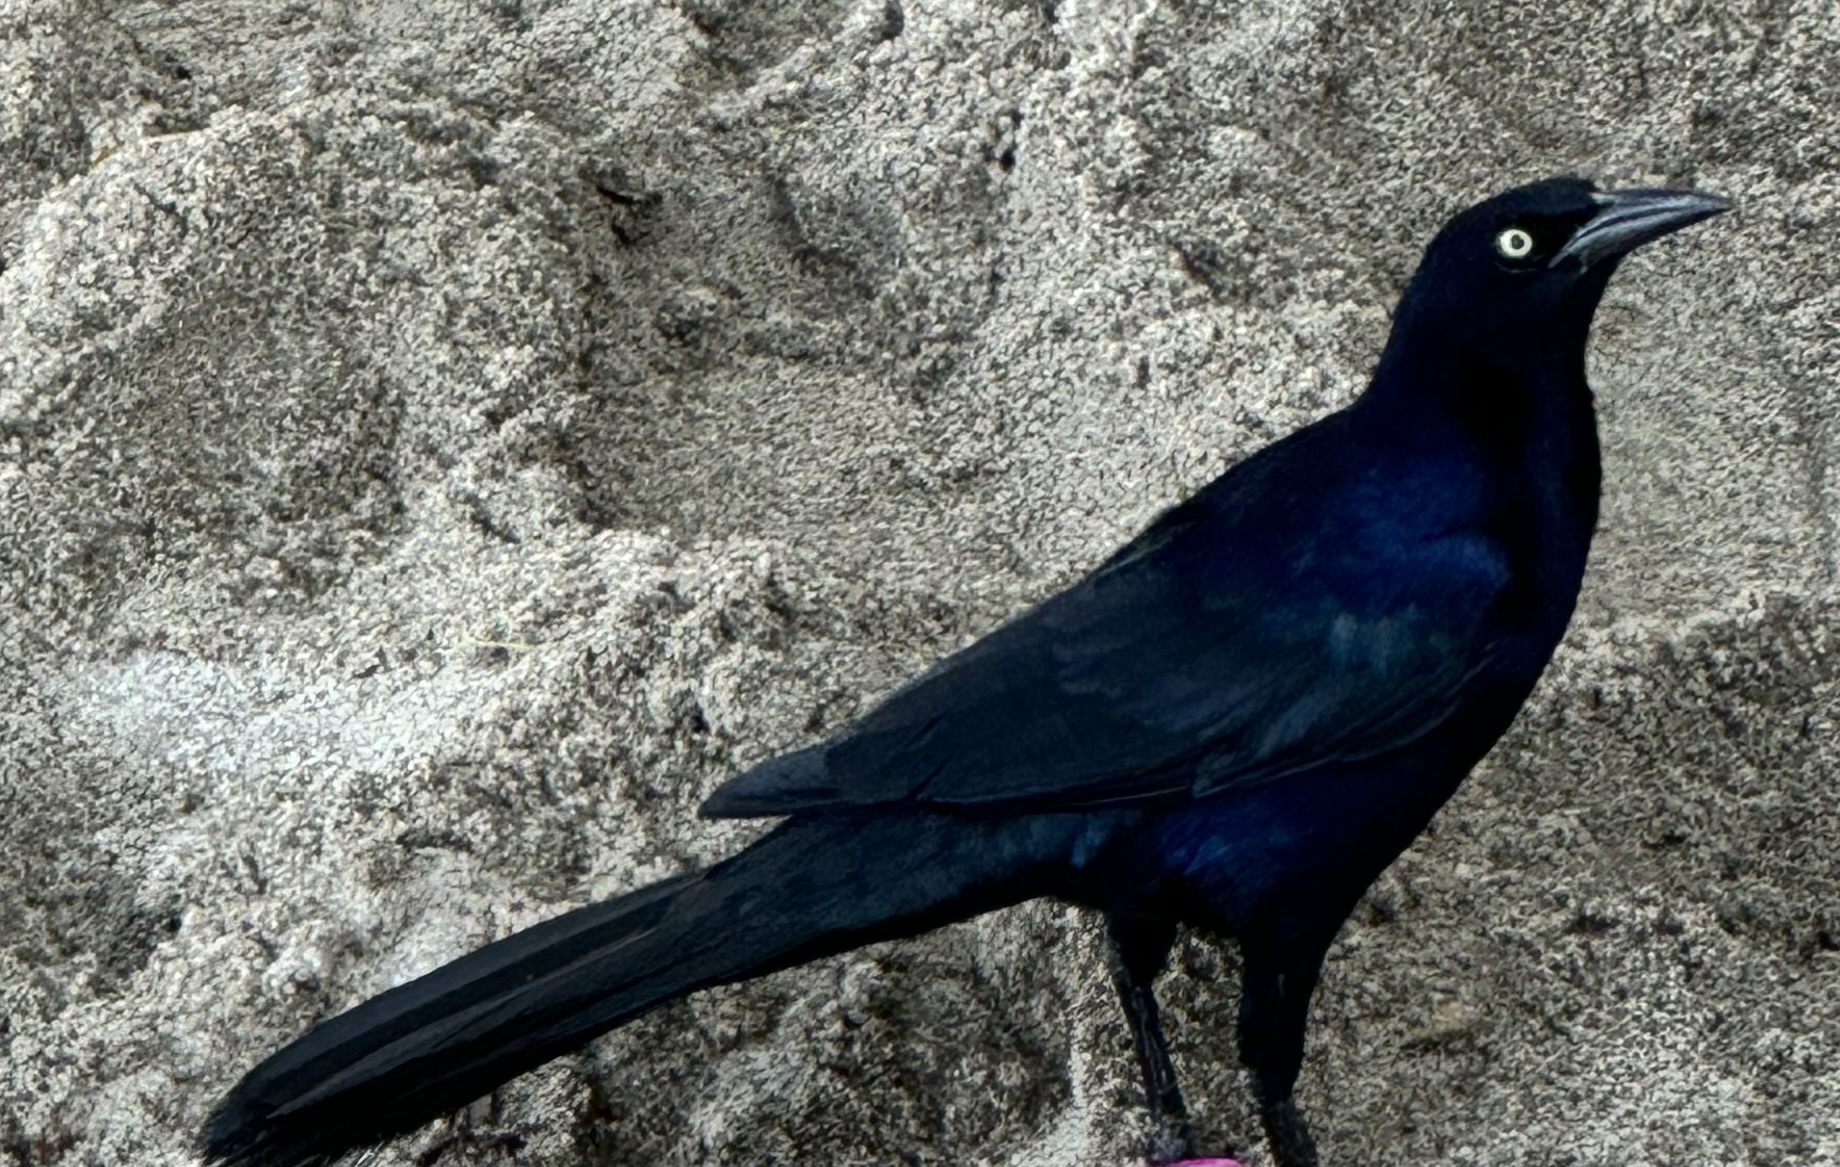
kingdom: Animalia
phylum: Chordata
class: Aves
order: Passeriformes
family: Icteridae
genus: Quiscalus
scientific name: Quiscalus mexicanus
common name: Great-tailed grackle
